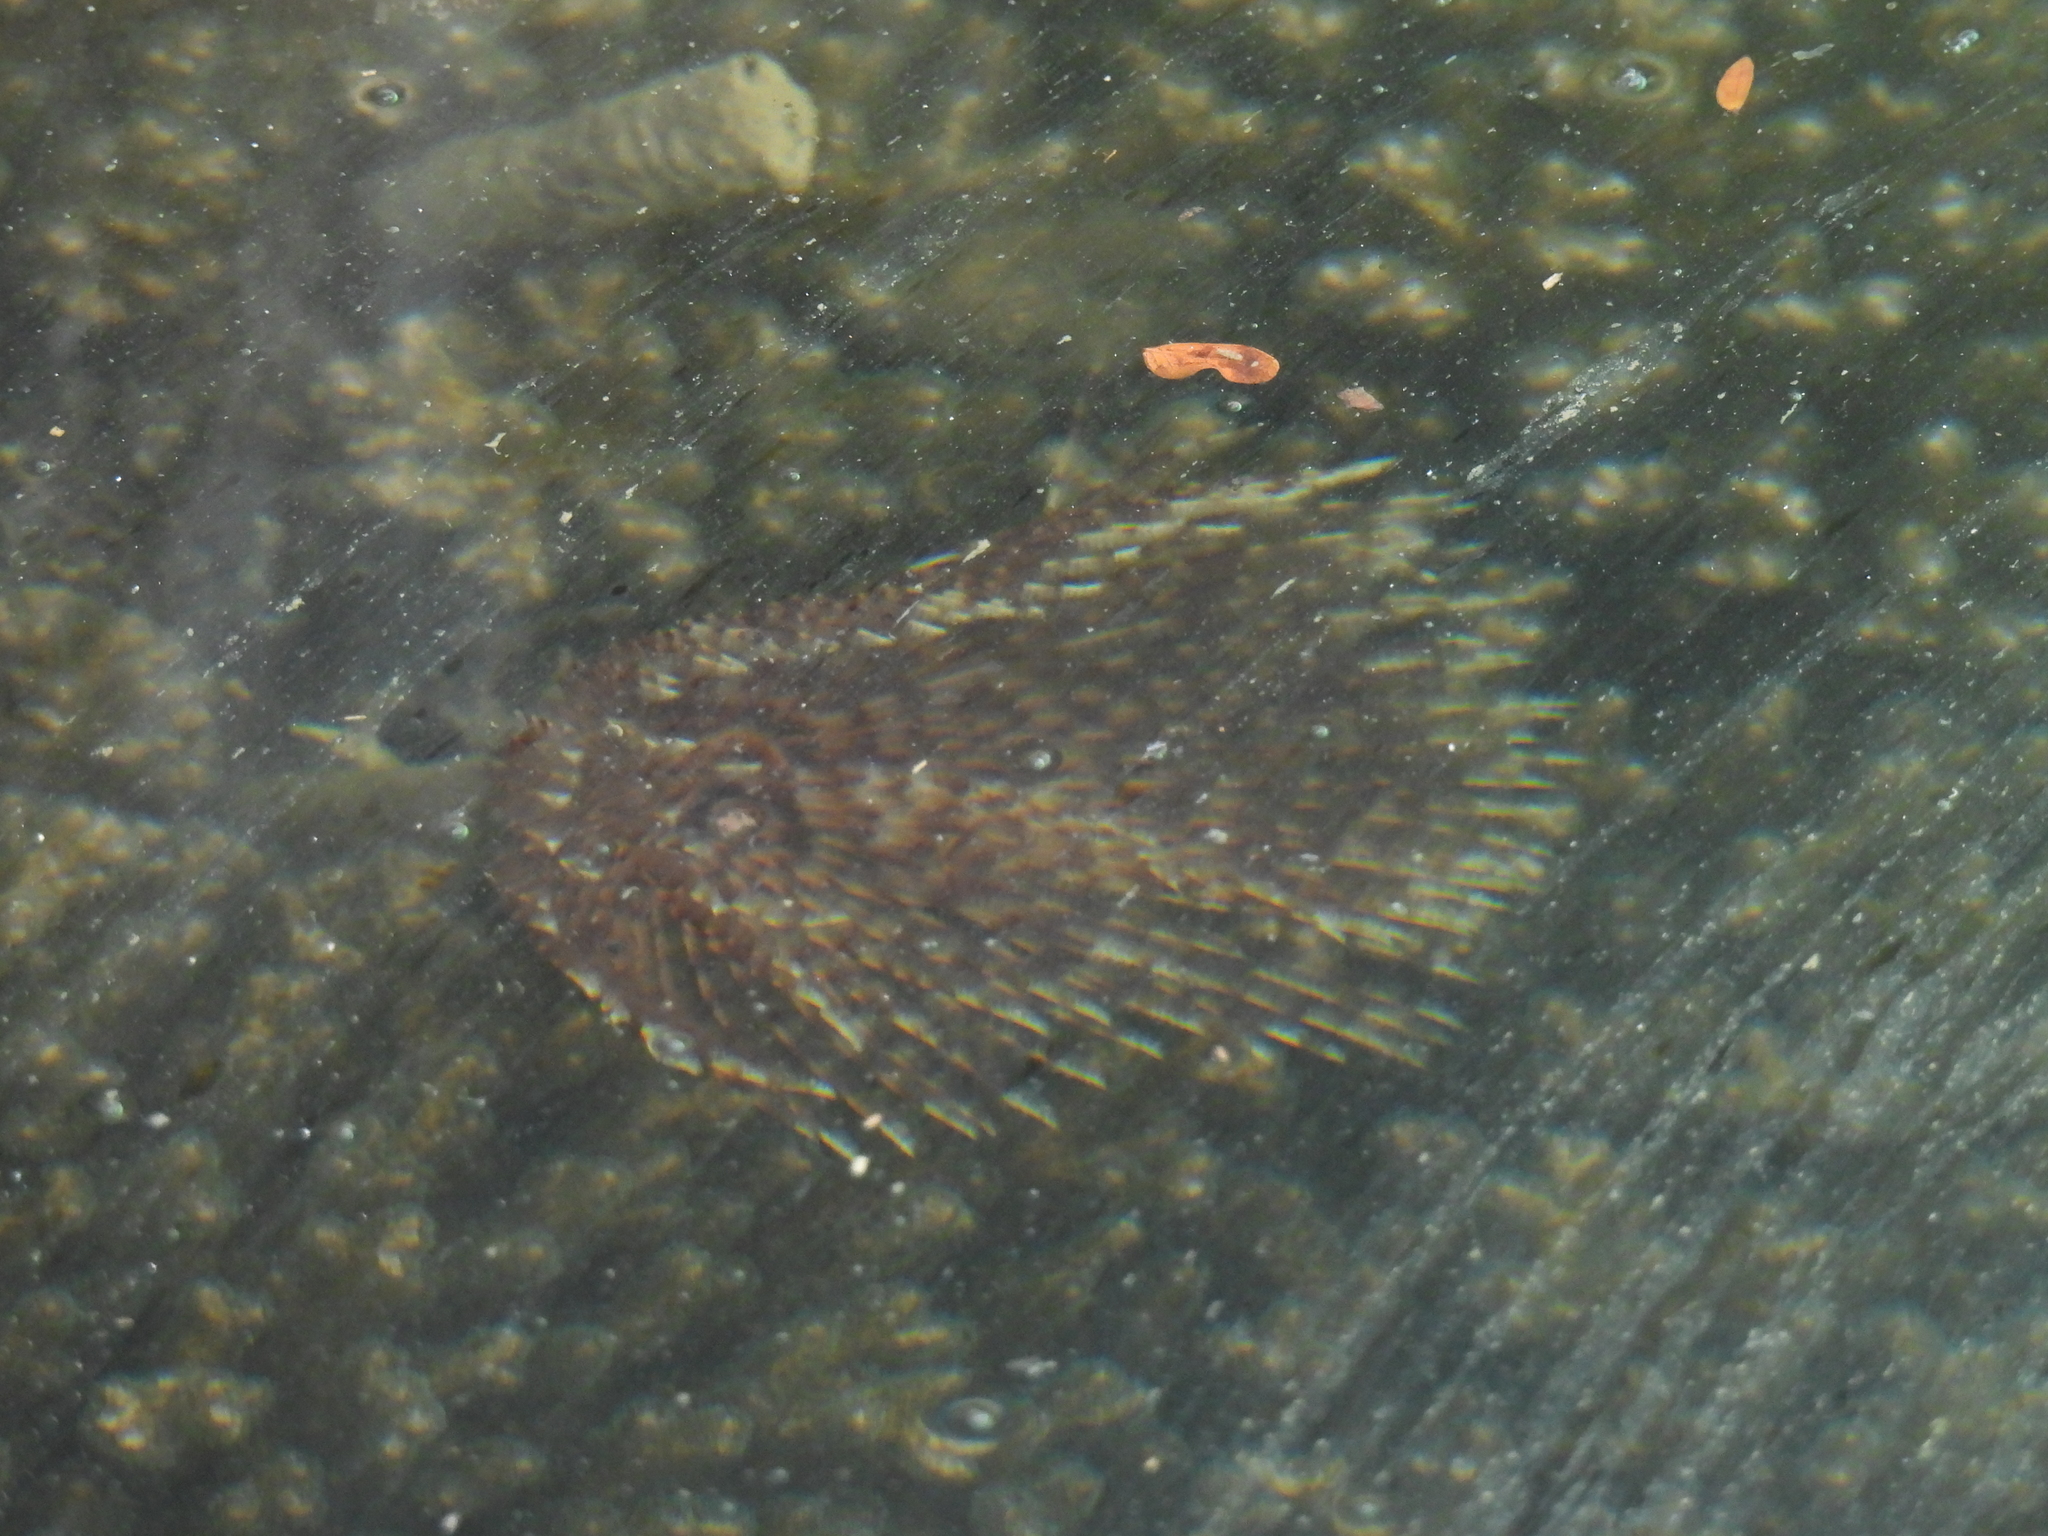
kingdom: Animalia
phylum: Annelida
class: Polychaeta
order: Sabellida
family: Sabellidae
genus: Sabellastarte
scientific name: Sabellastarte spectabilis
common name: Feather duster worm
